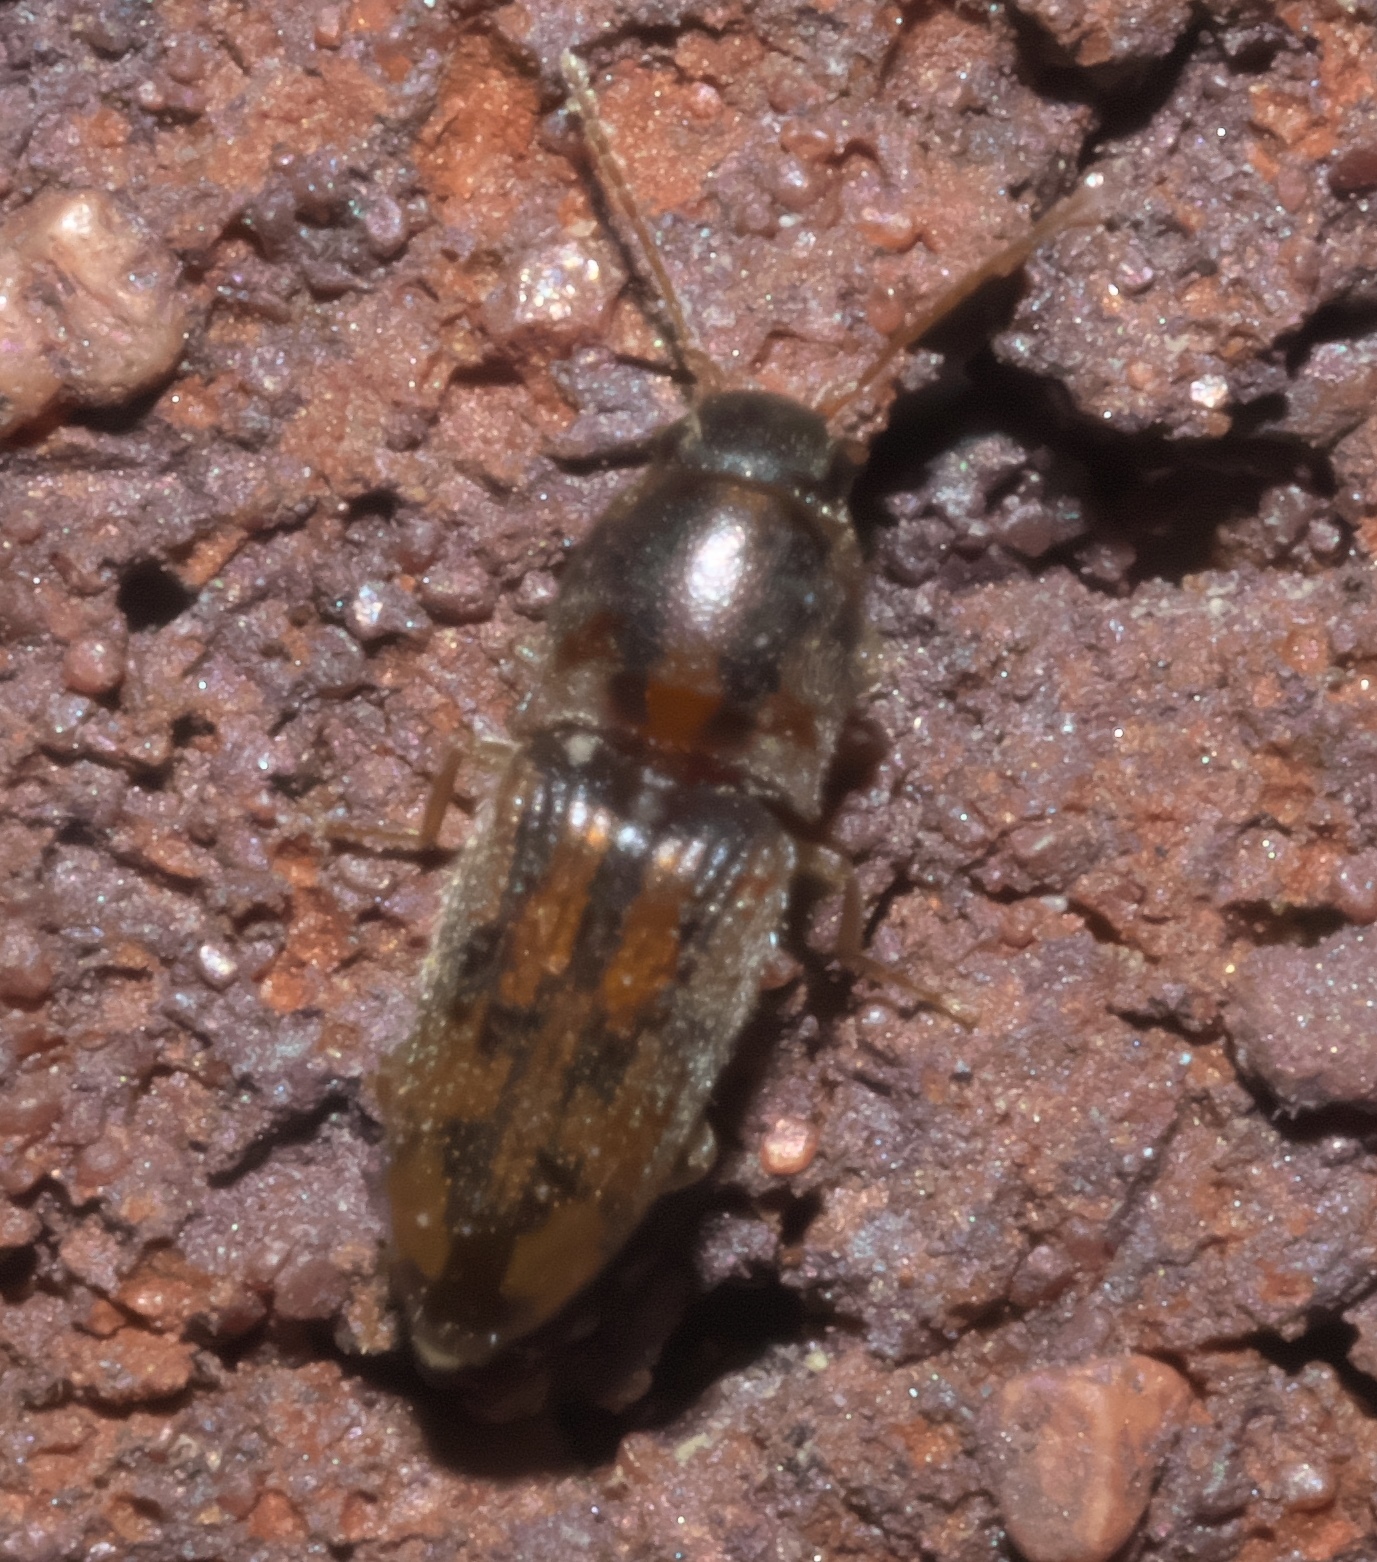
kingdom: Animalia
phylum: Arthropoda
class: Insecta
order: Coleoptera
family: Elateridae
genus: Monocrepidius
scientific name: Monocrepidius bellus
